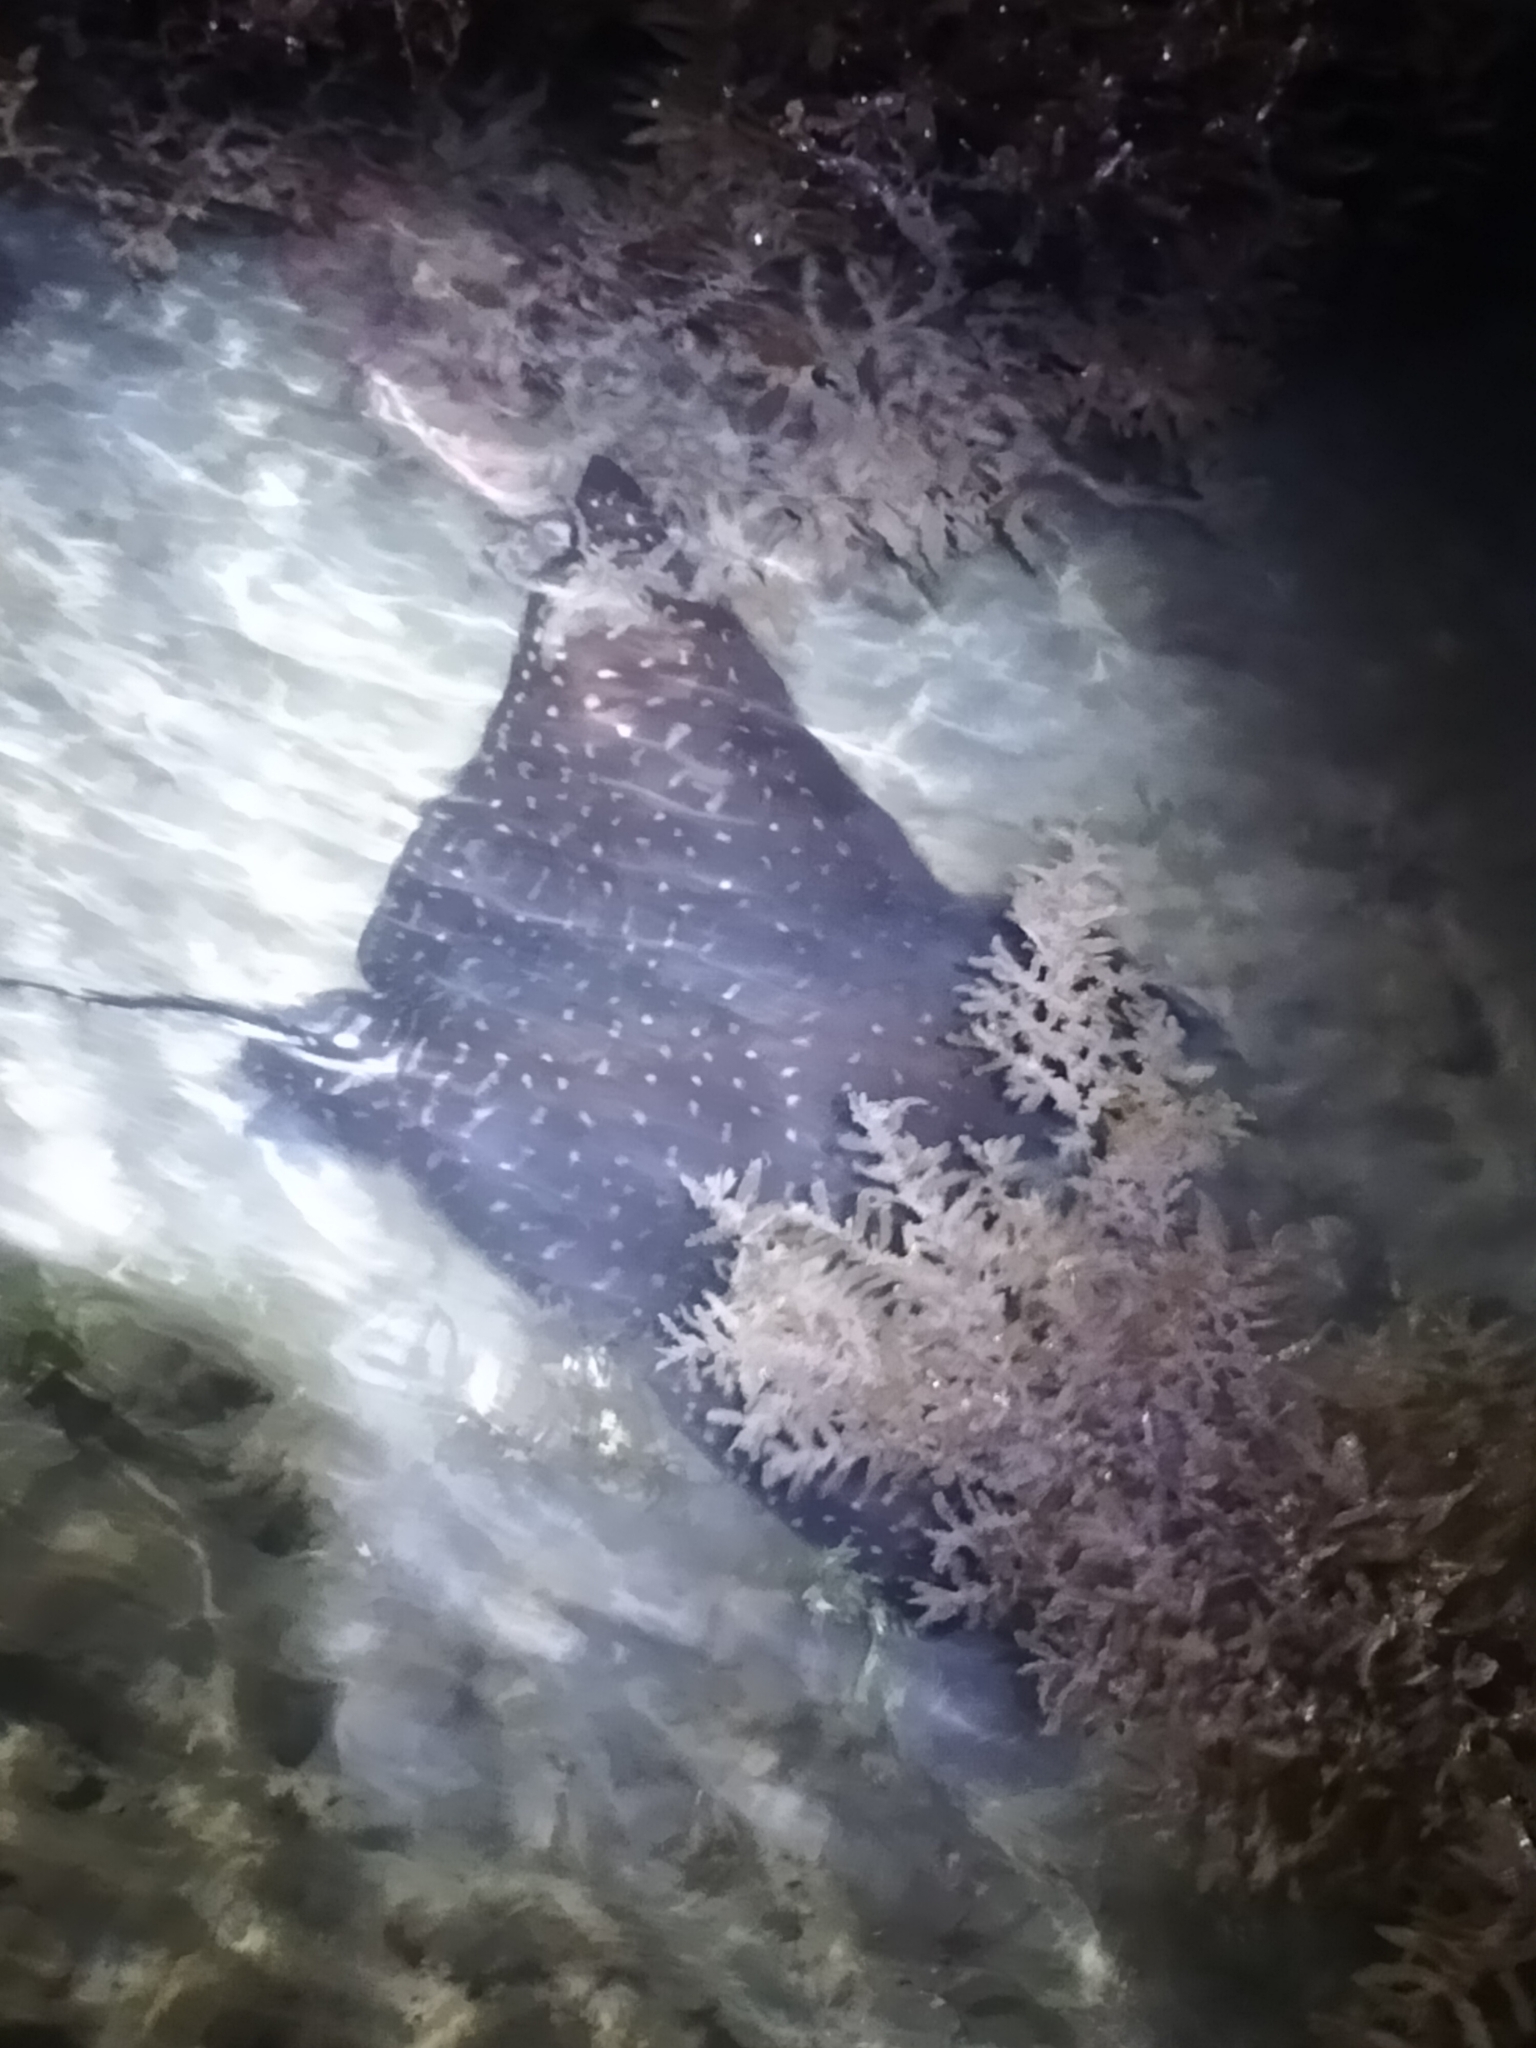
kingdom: Animalia
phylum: Chordata
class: Elasmobranchii
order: Myliobatiformes
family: Myliobatidae
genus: Aetobatus
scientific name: Aetobatus ocellatus
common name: Ocellated eagle ray
